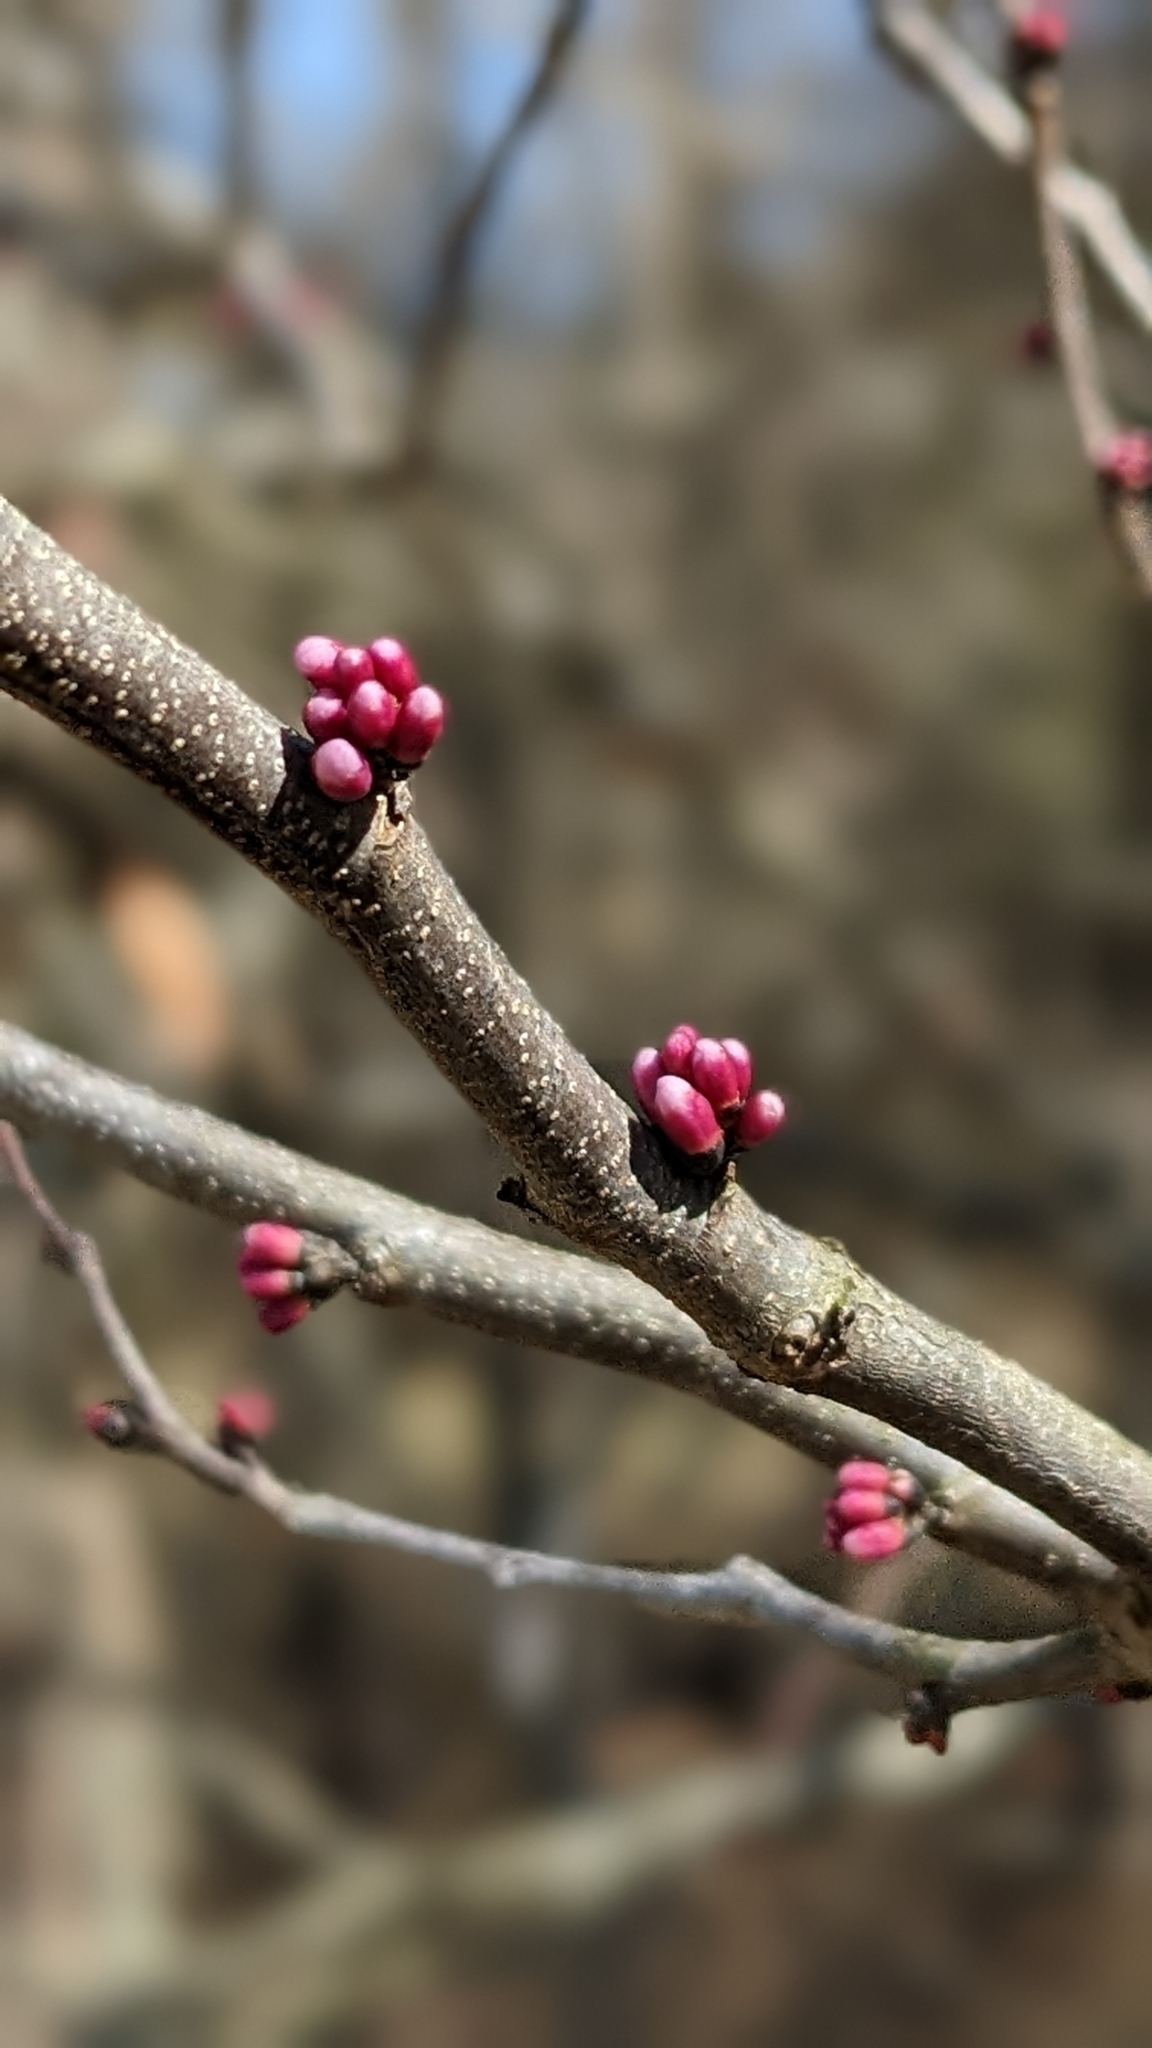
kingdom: Plantae
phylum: Tracheophyta
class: Magnoliopsida
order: Fabales
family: Fabaceae
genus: Cercis
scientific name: Cercis canadensis
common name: Eastern redbud
